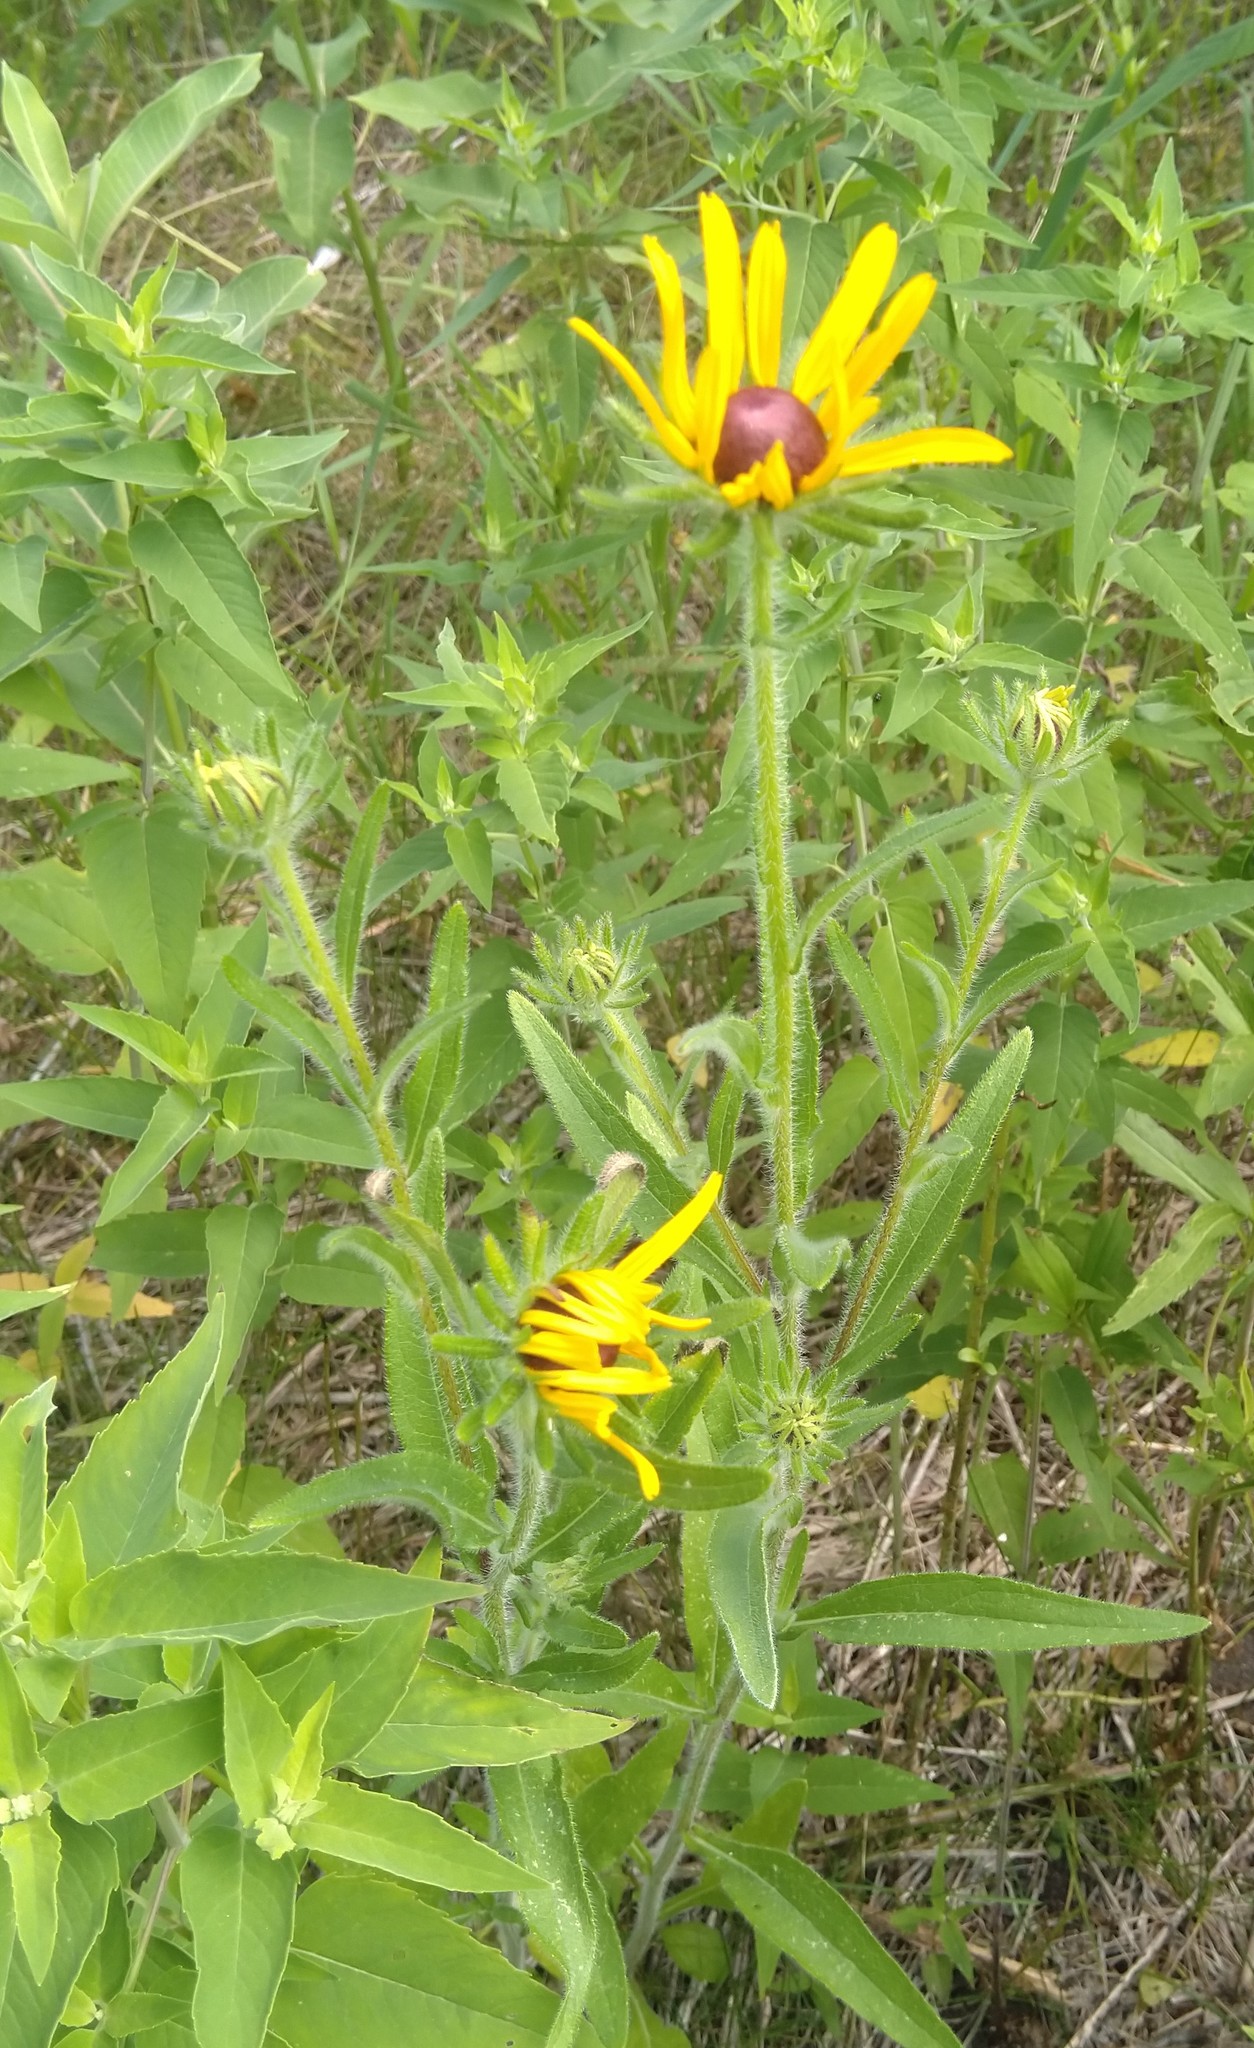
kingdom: Plantae
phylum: Tracheophyta
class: Magnoliopsida
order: Asterales
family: Asteraceae
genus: Rudbeckia
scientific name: Rudbeckia hirta
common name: Black-eyed-susan
